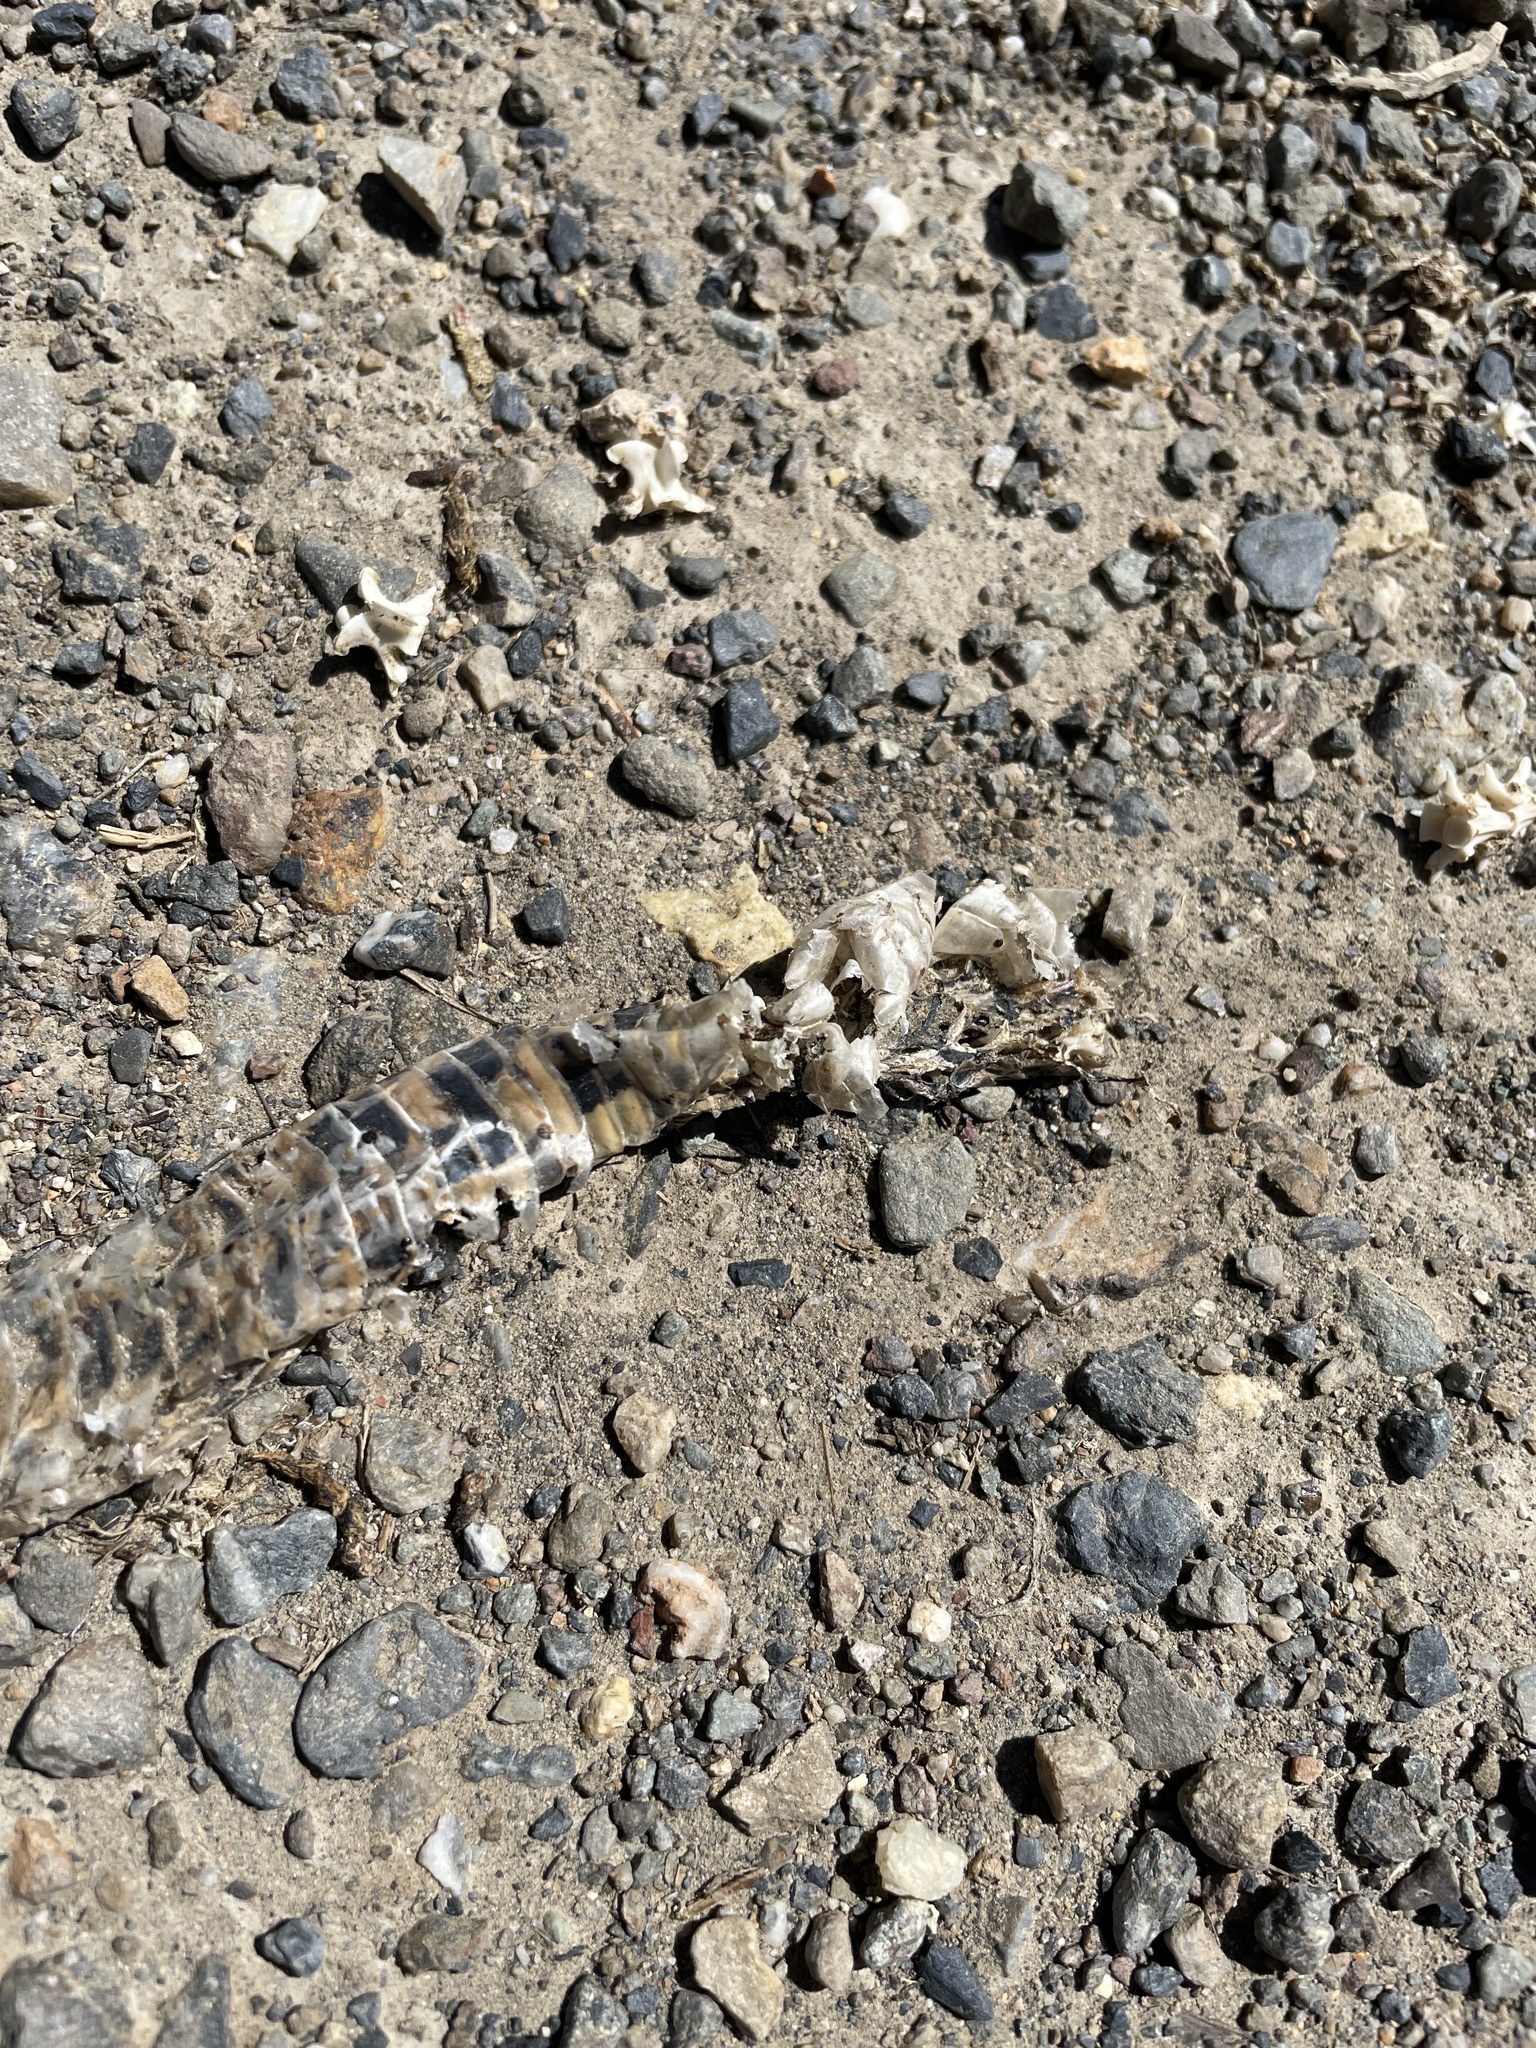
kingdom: Animalia
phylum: Chordata
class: Squamata
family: Viperidae
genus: Crotalus
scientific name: Crotalus oreganus
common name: Abyssus
